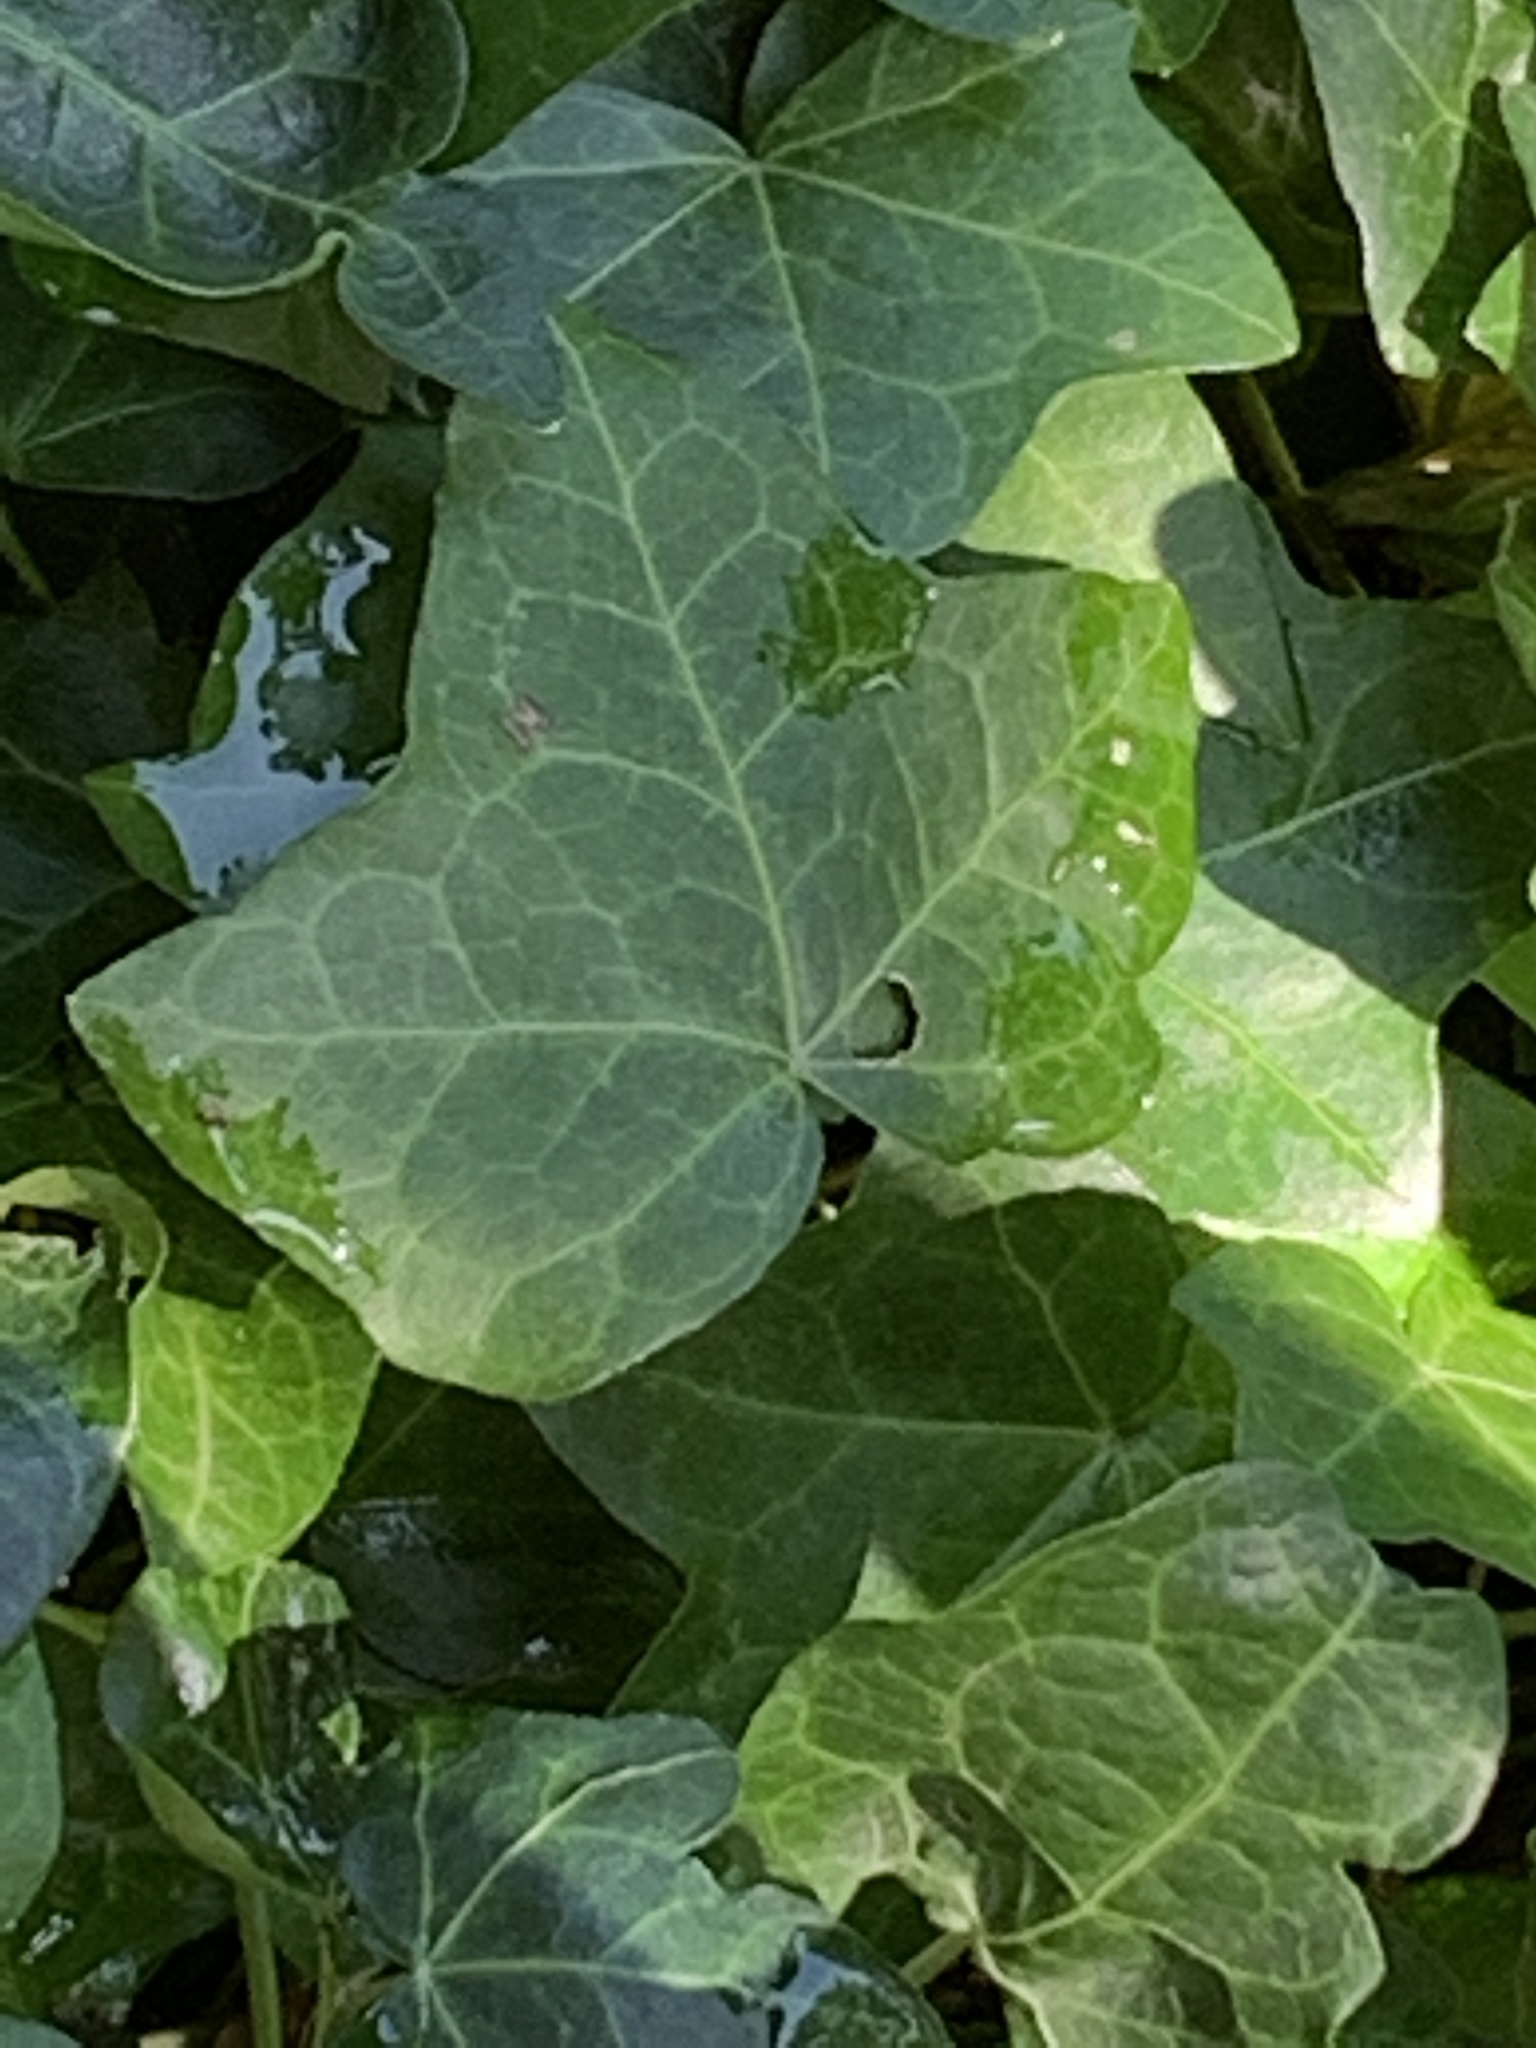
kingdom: Plantae
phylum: Tracheophyta
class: Magnoliopsida
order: Apiales
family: Araliaceae
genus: Hedera
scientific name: Hedera helix
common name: Ivy
